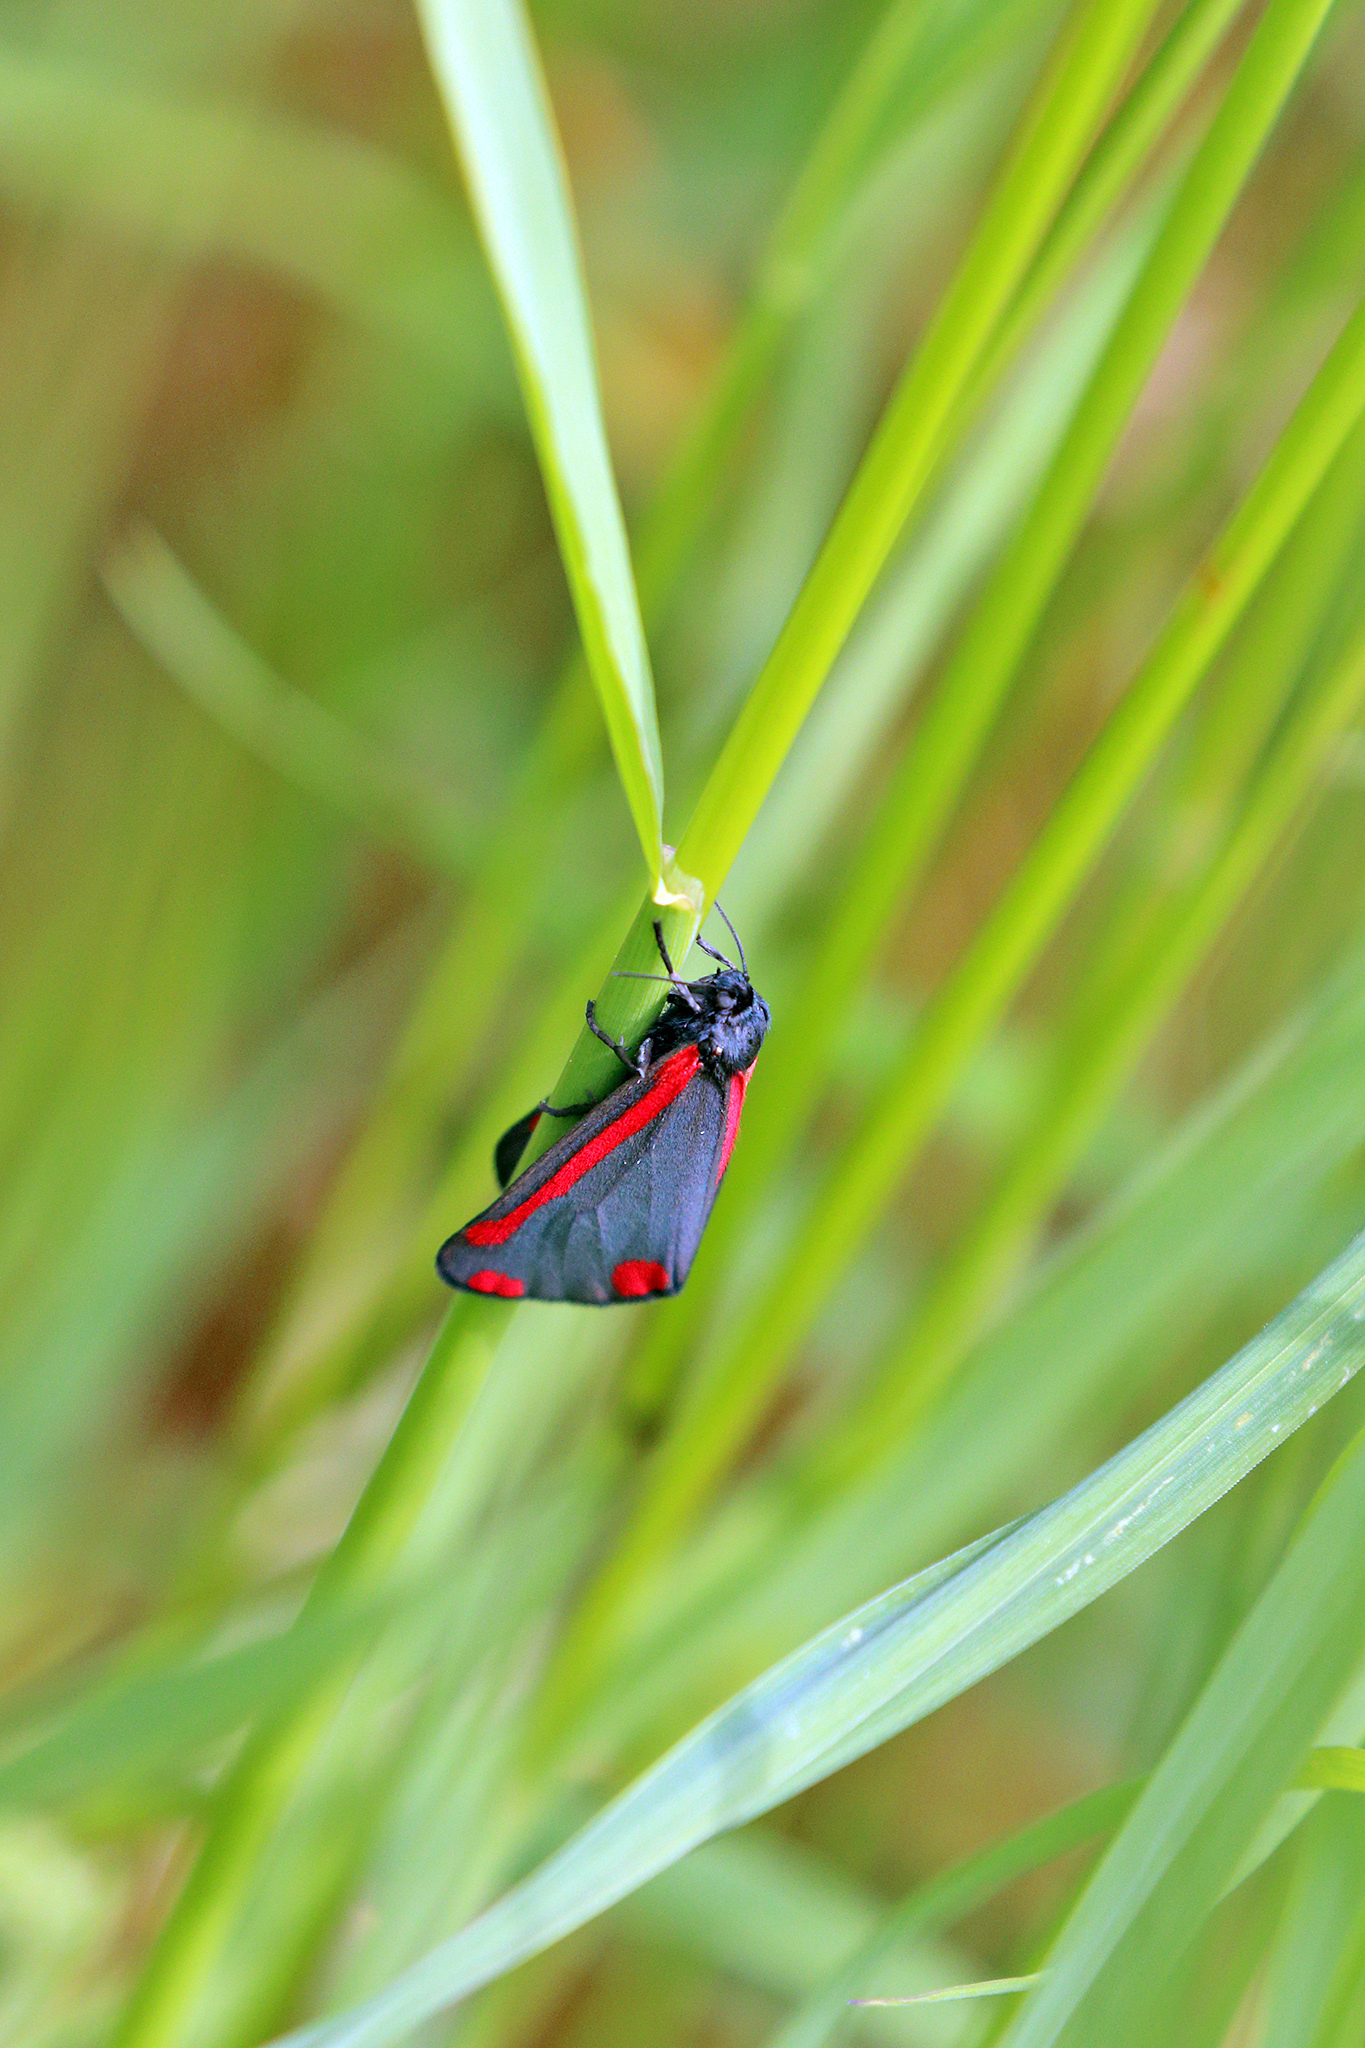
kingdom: Animalia
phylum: Arthropoda
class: Insecta
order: Lepidoptera
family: Erebidae
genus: Tyria
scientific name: Tyria jacobaeae
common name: Cinnabar
